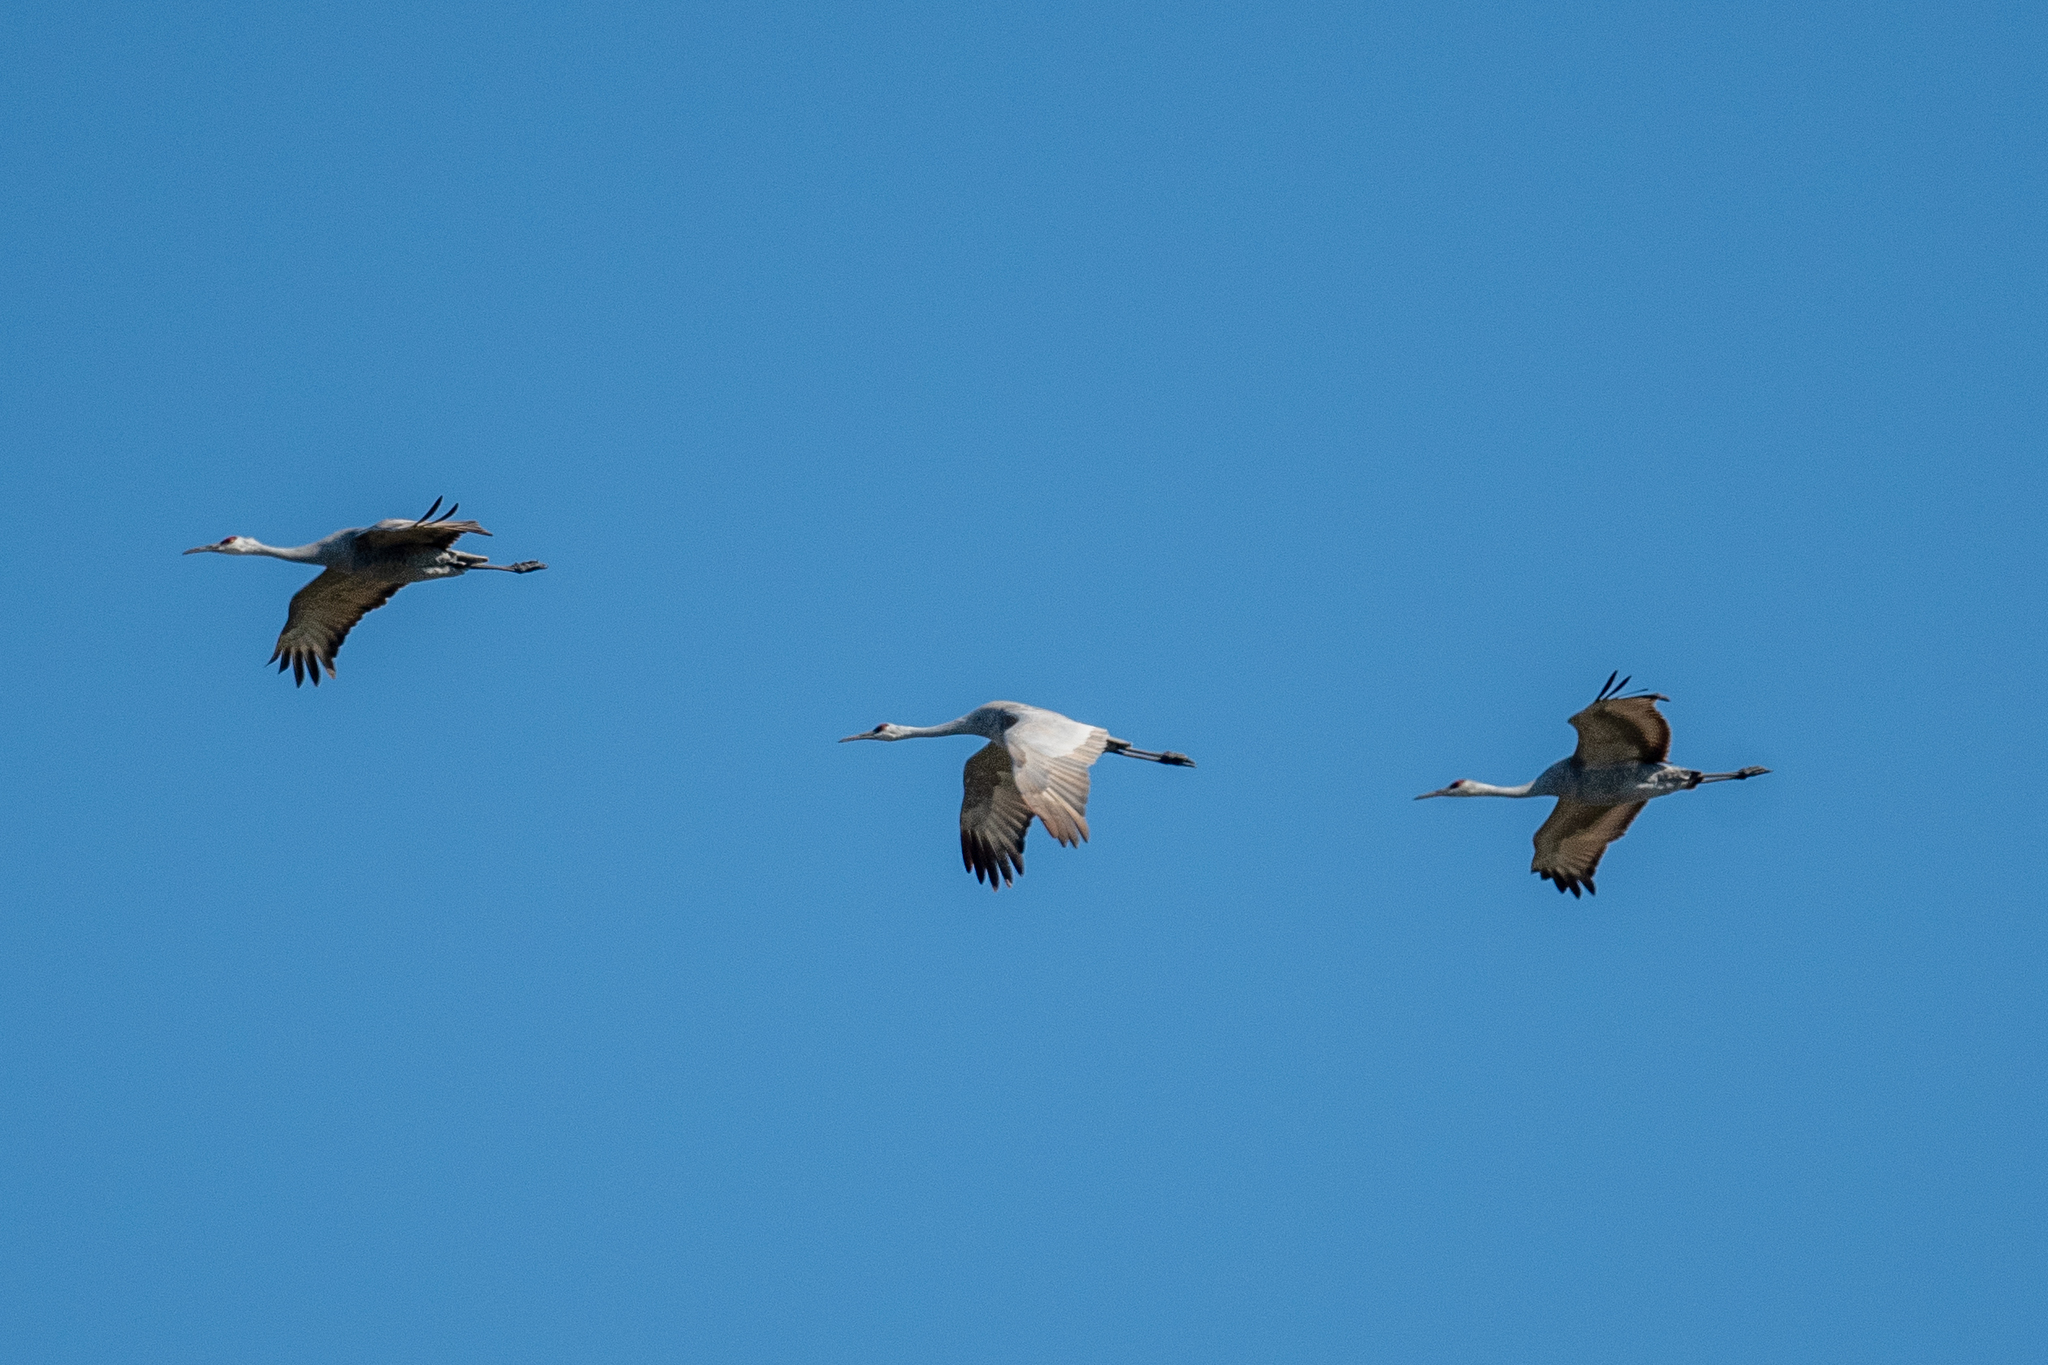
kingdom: Animalia
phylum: Chordata
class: Aves
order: Gruiformes
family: Gruidae
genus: Grus
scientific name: Grus canadensis
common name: Sandhill crane
